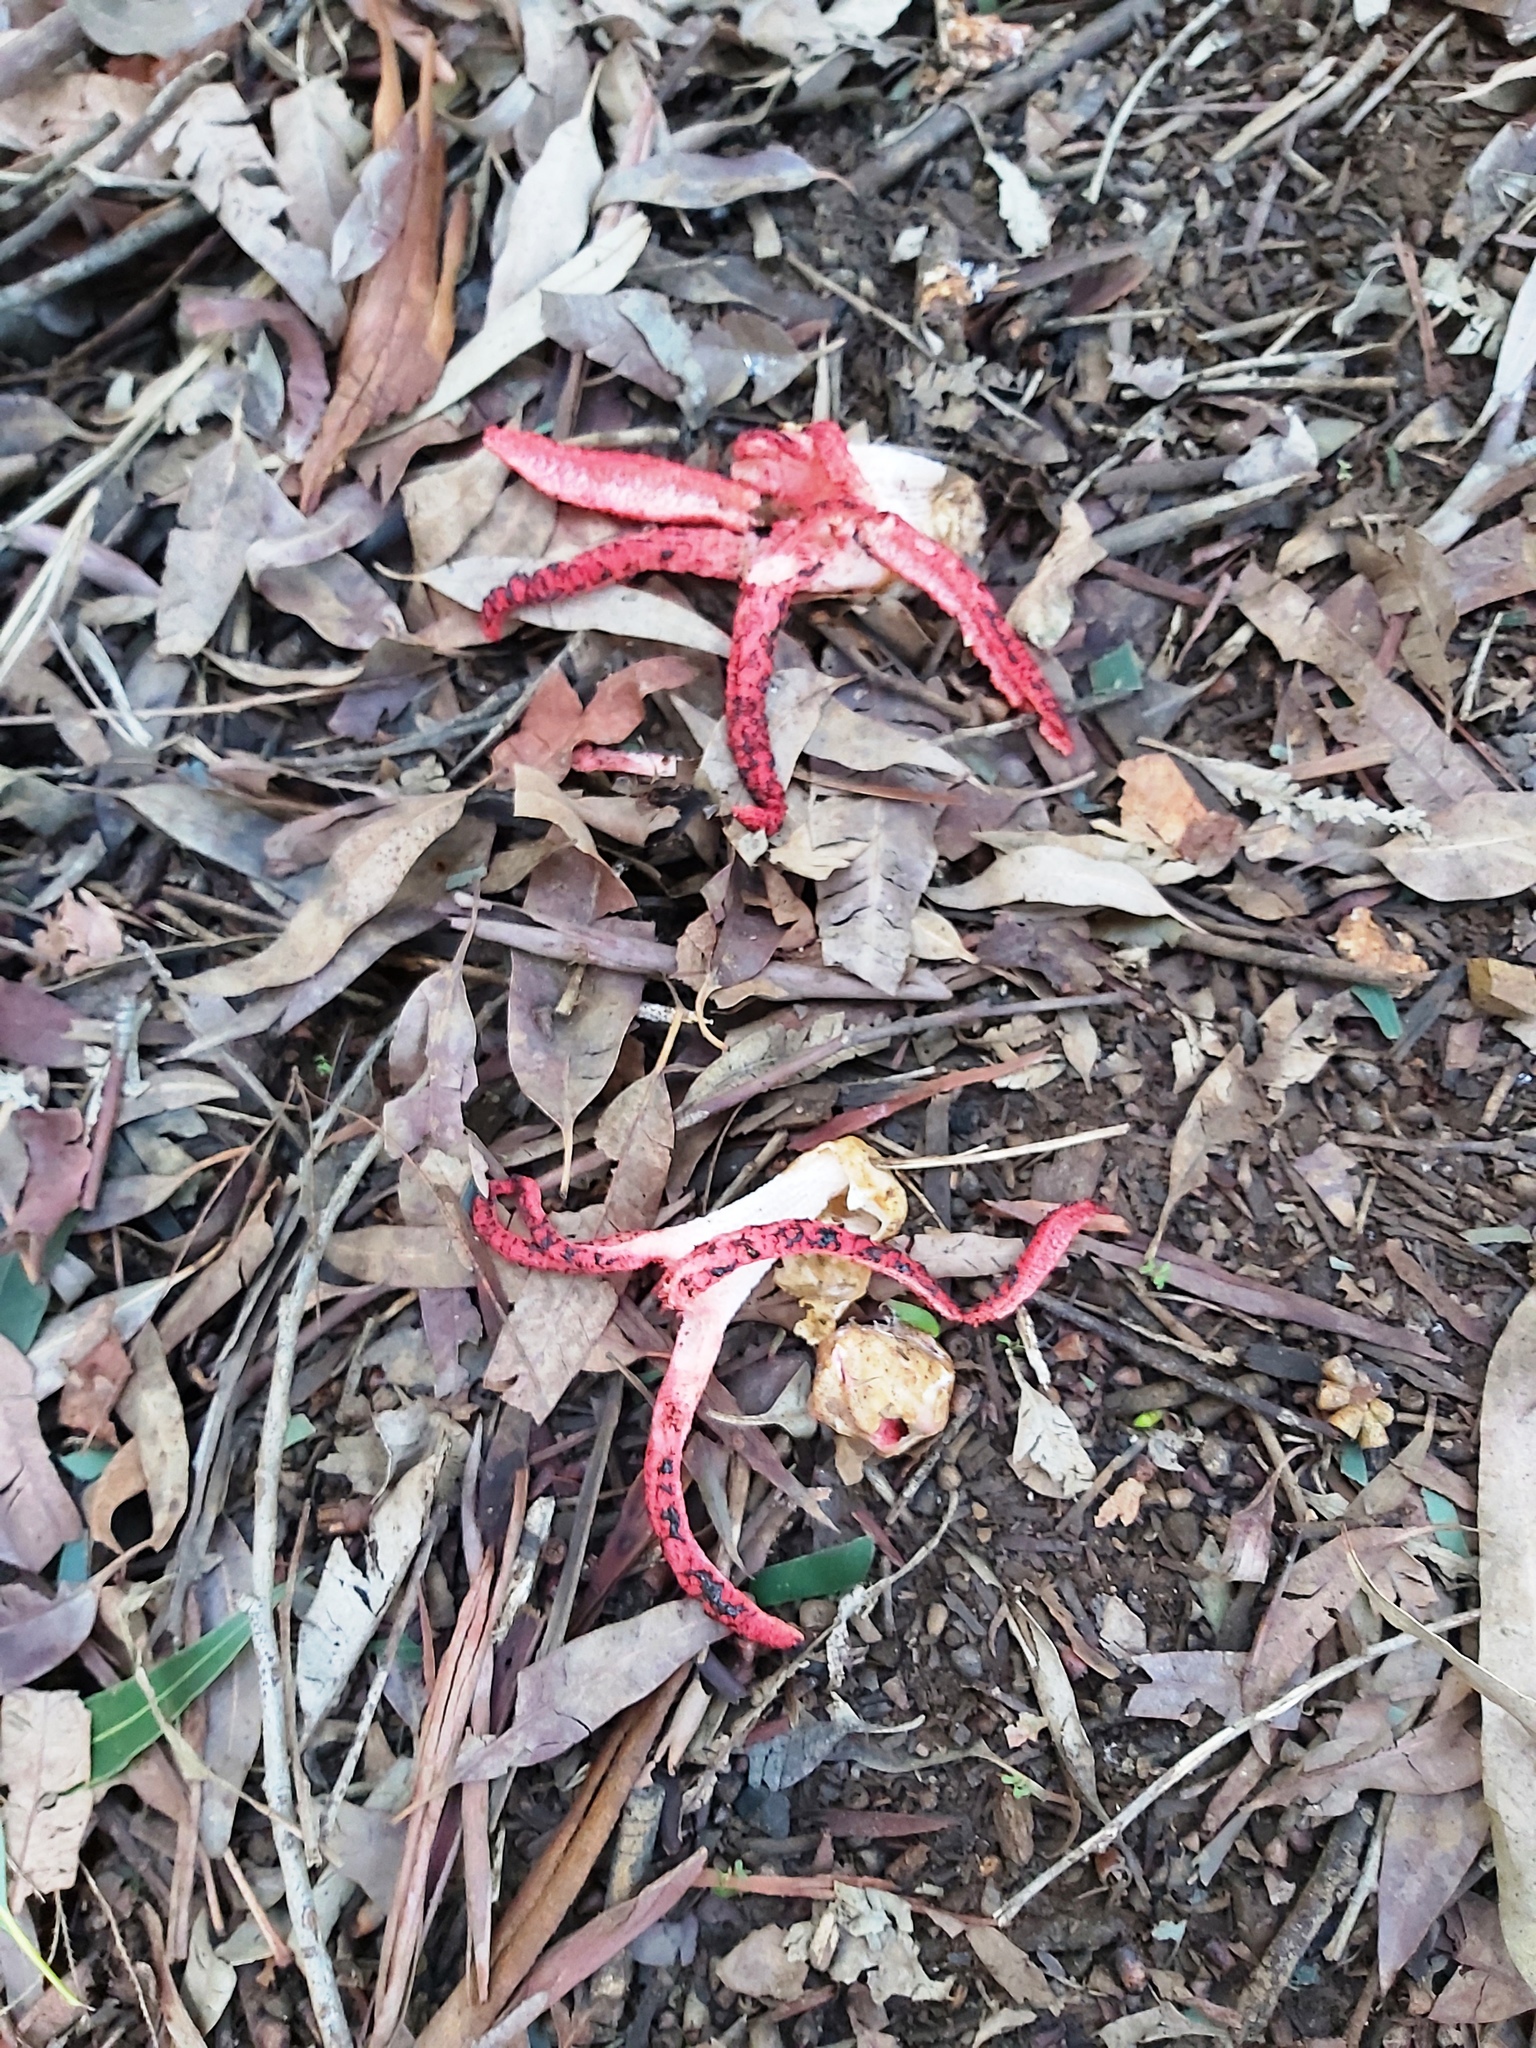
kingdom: Fungi
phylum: Basidiomycota
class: Agaricomycetes
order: Phallales
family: Phallaceae
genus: Clathrus
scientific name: Clathrus archeri
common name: Devil's fingers
